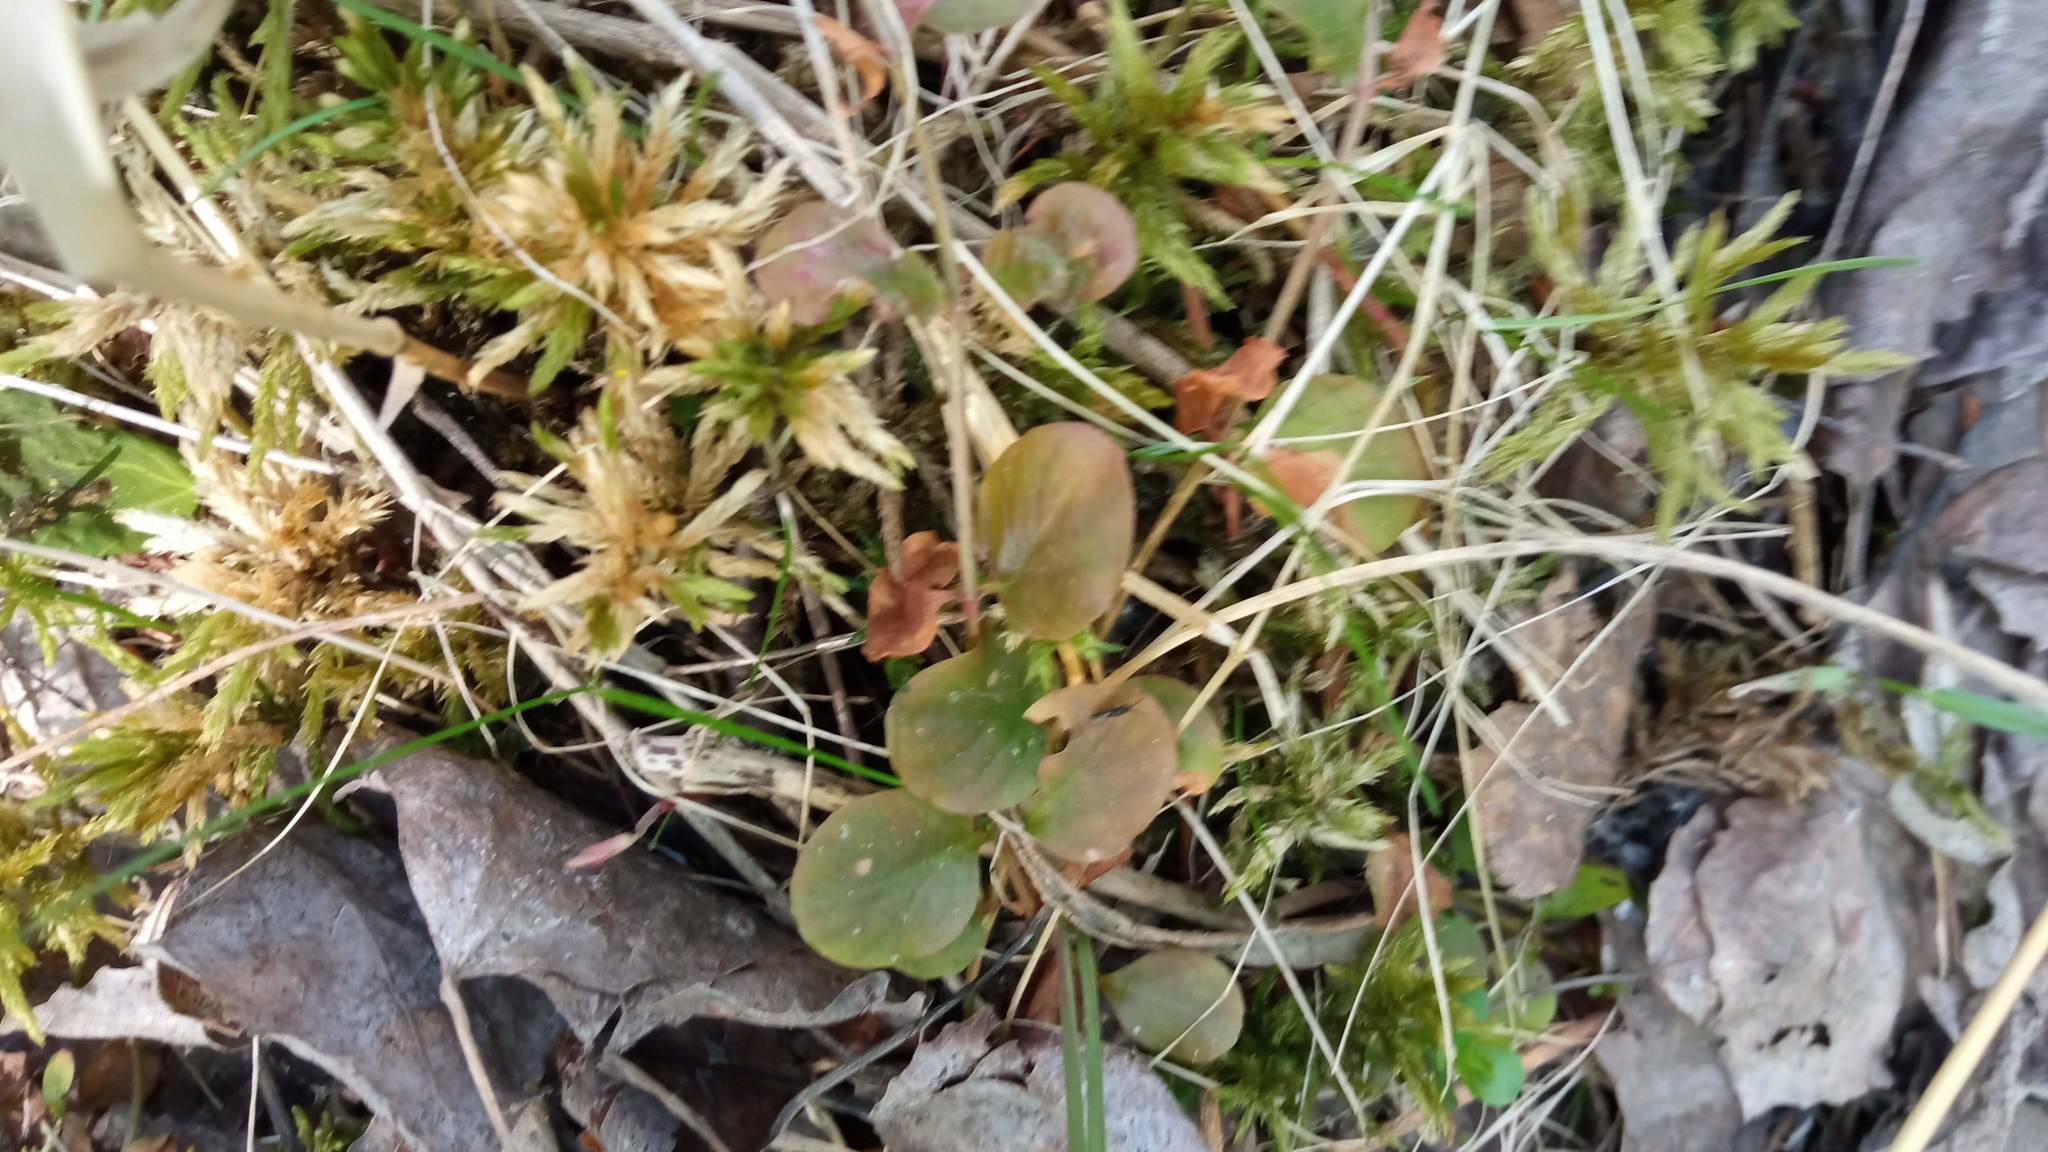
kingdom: Plantae
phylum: Tracheophyta
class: Magnoliopsida
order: Ericales
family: Primulaceae
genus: Lysimachia
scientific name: Lysimachia nummularia
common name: Moneywort
